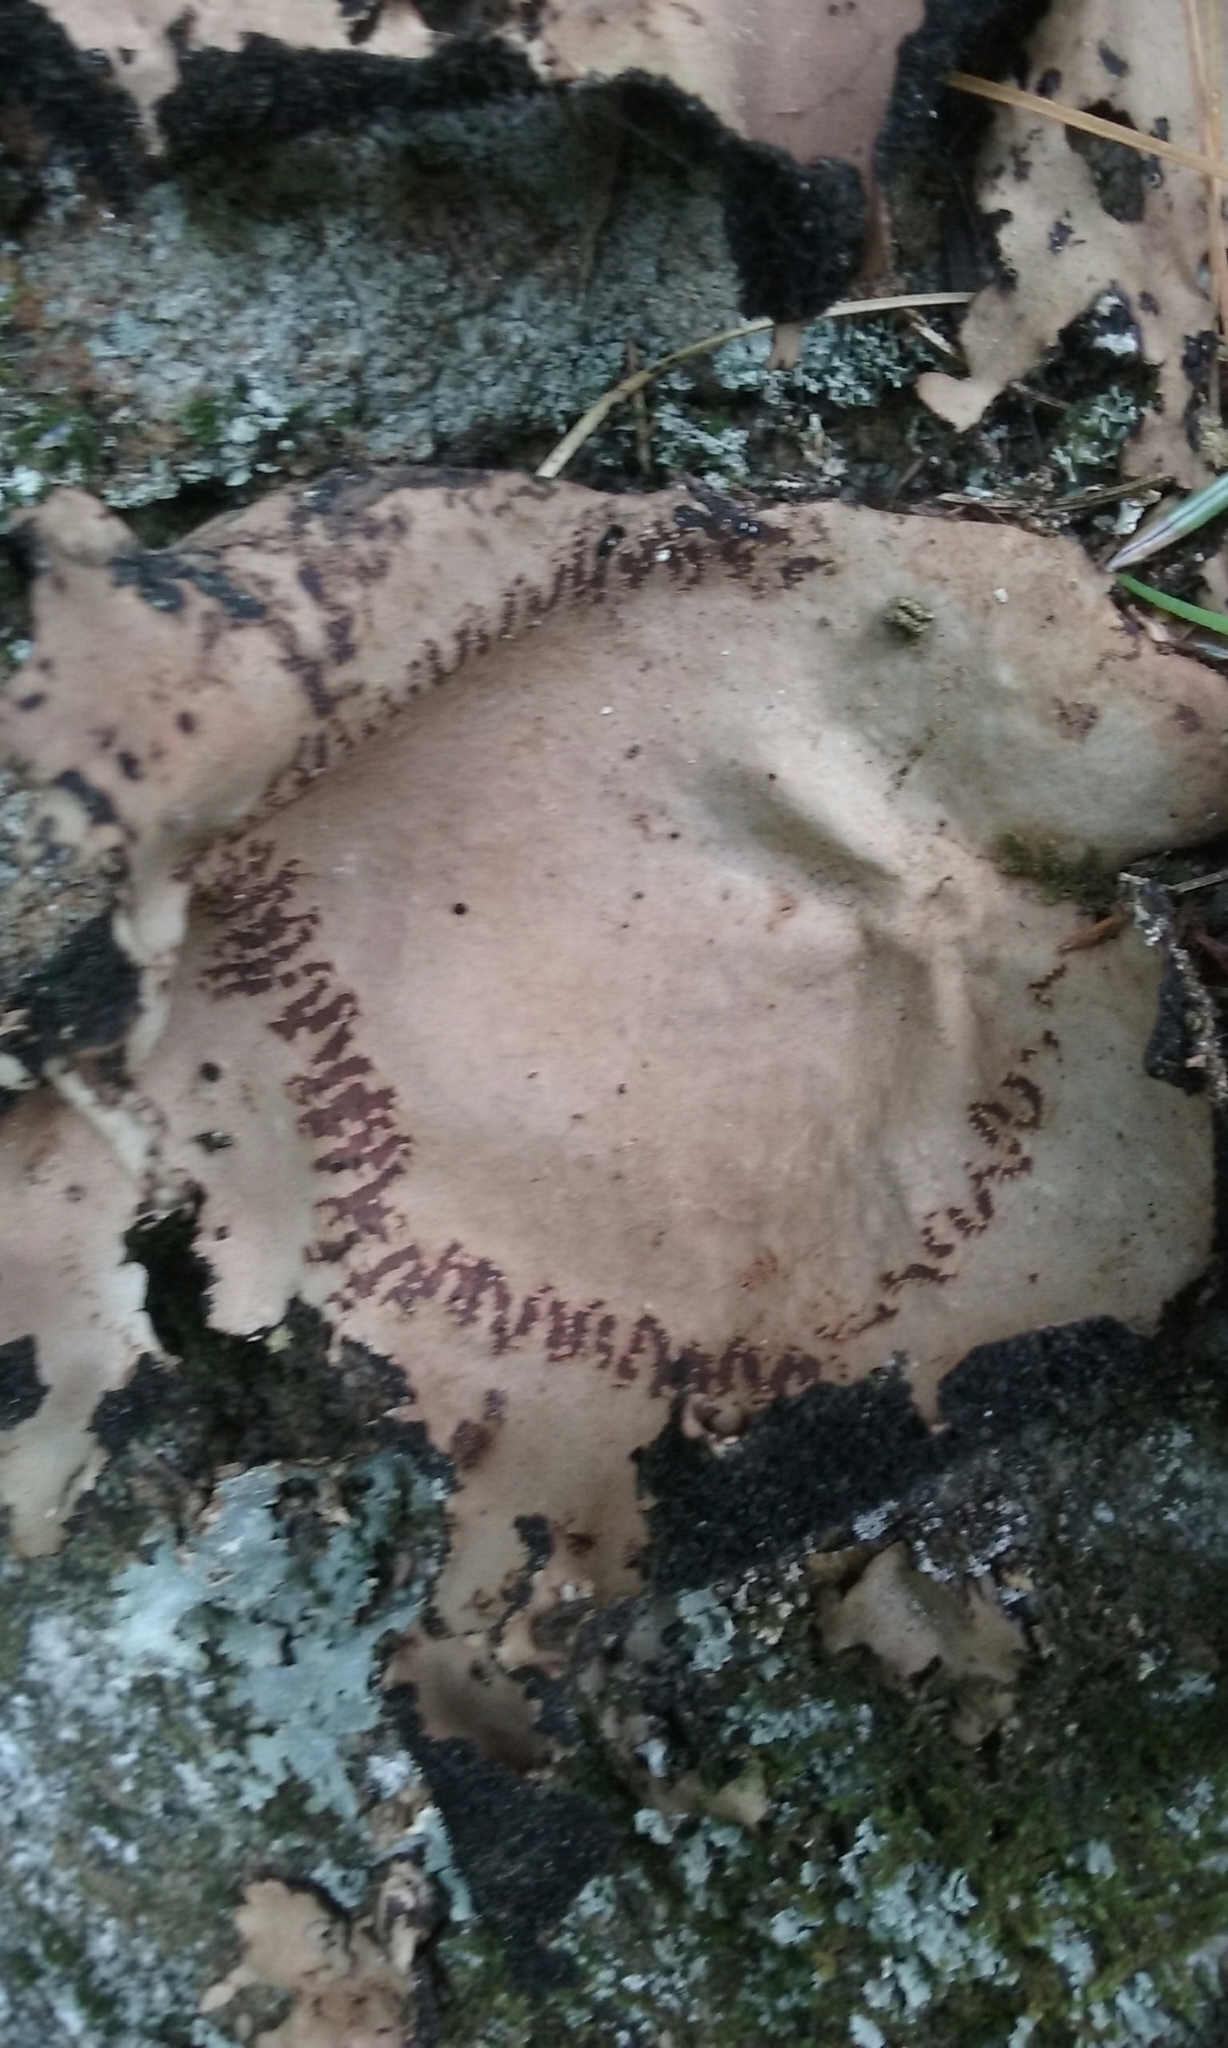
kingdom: Fungi
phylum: Ascomycota
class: Lecanoromycetes
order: Umbilicariales
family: Umbilicariaceae
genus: Umbilicaria
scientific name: Umbilicaria mammulata
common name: Smooth rock tripe
